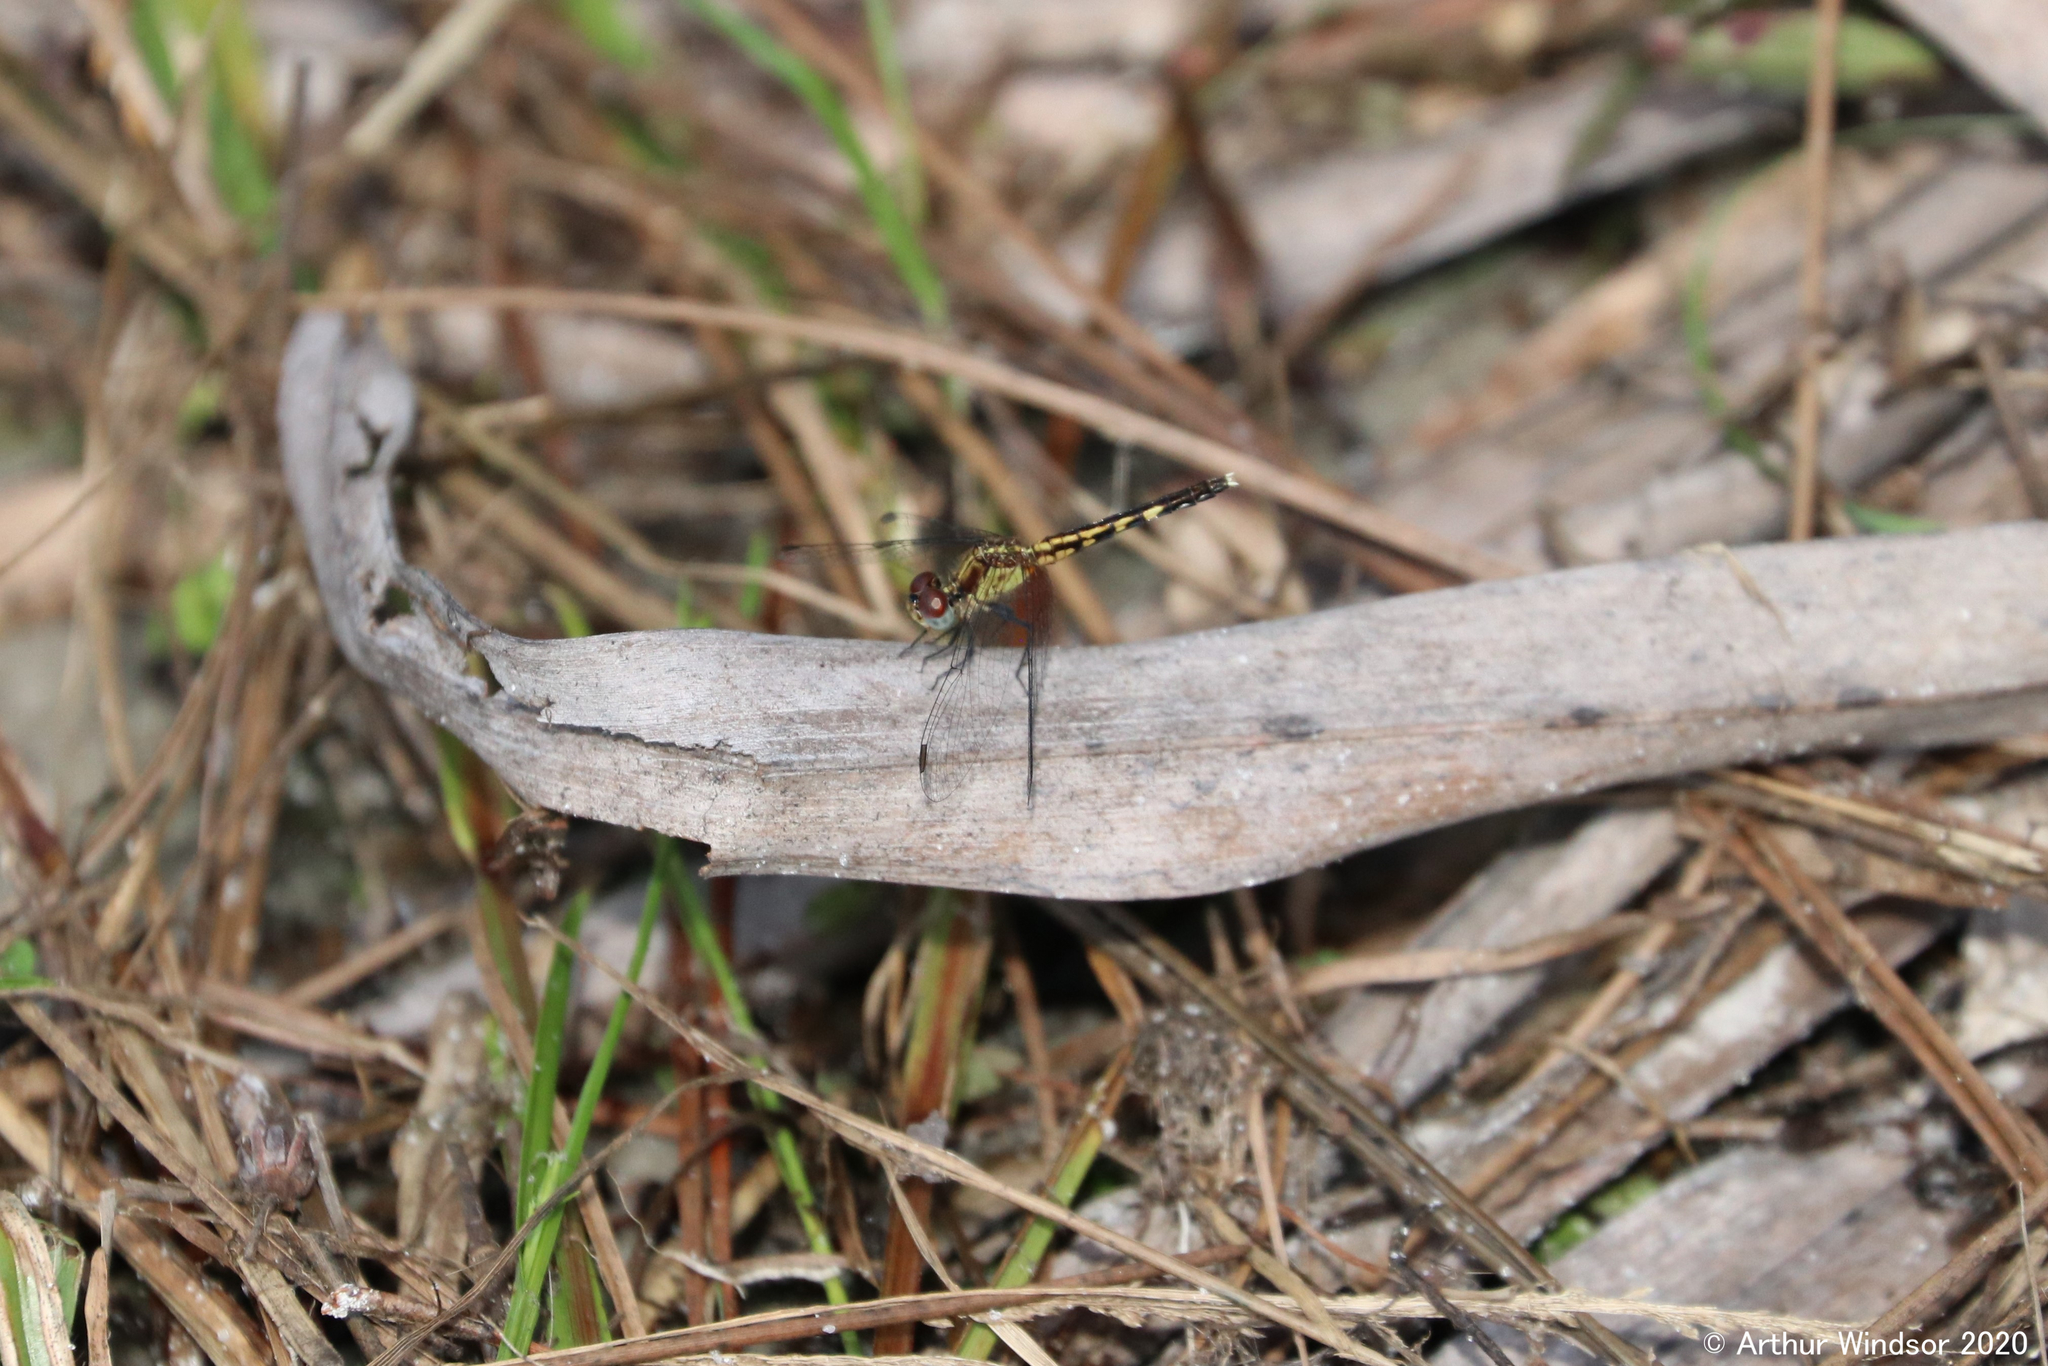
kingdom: Animalia
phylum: Arthropoda
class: Insecta
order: Odonata
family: Libellulidae
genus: Erythrodiplax
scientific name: Erythrodiplax minuscula
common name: Little blue dragonlet
